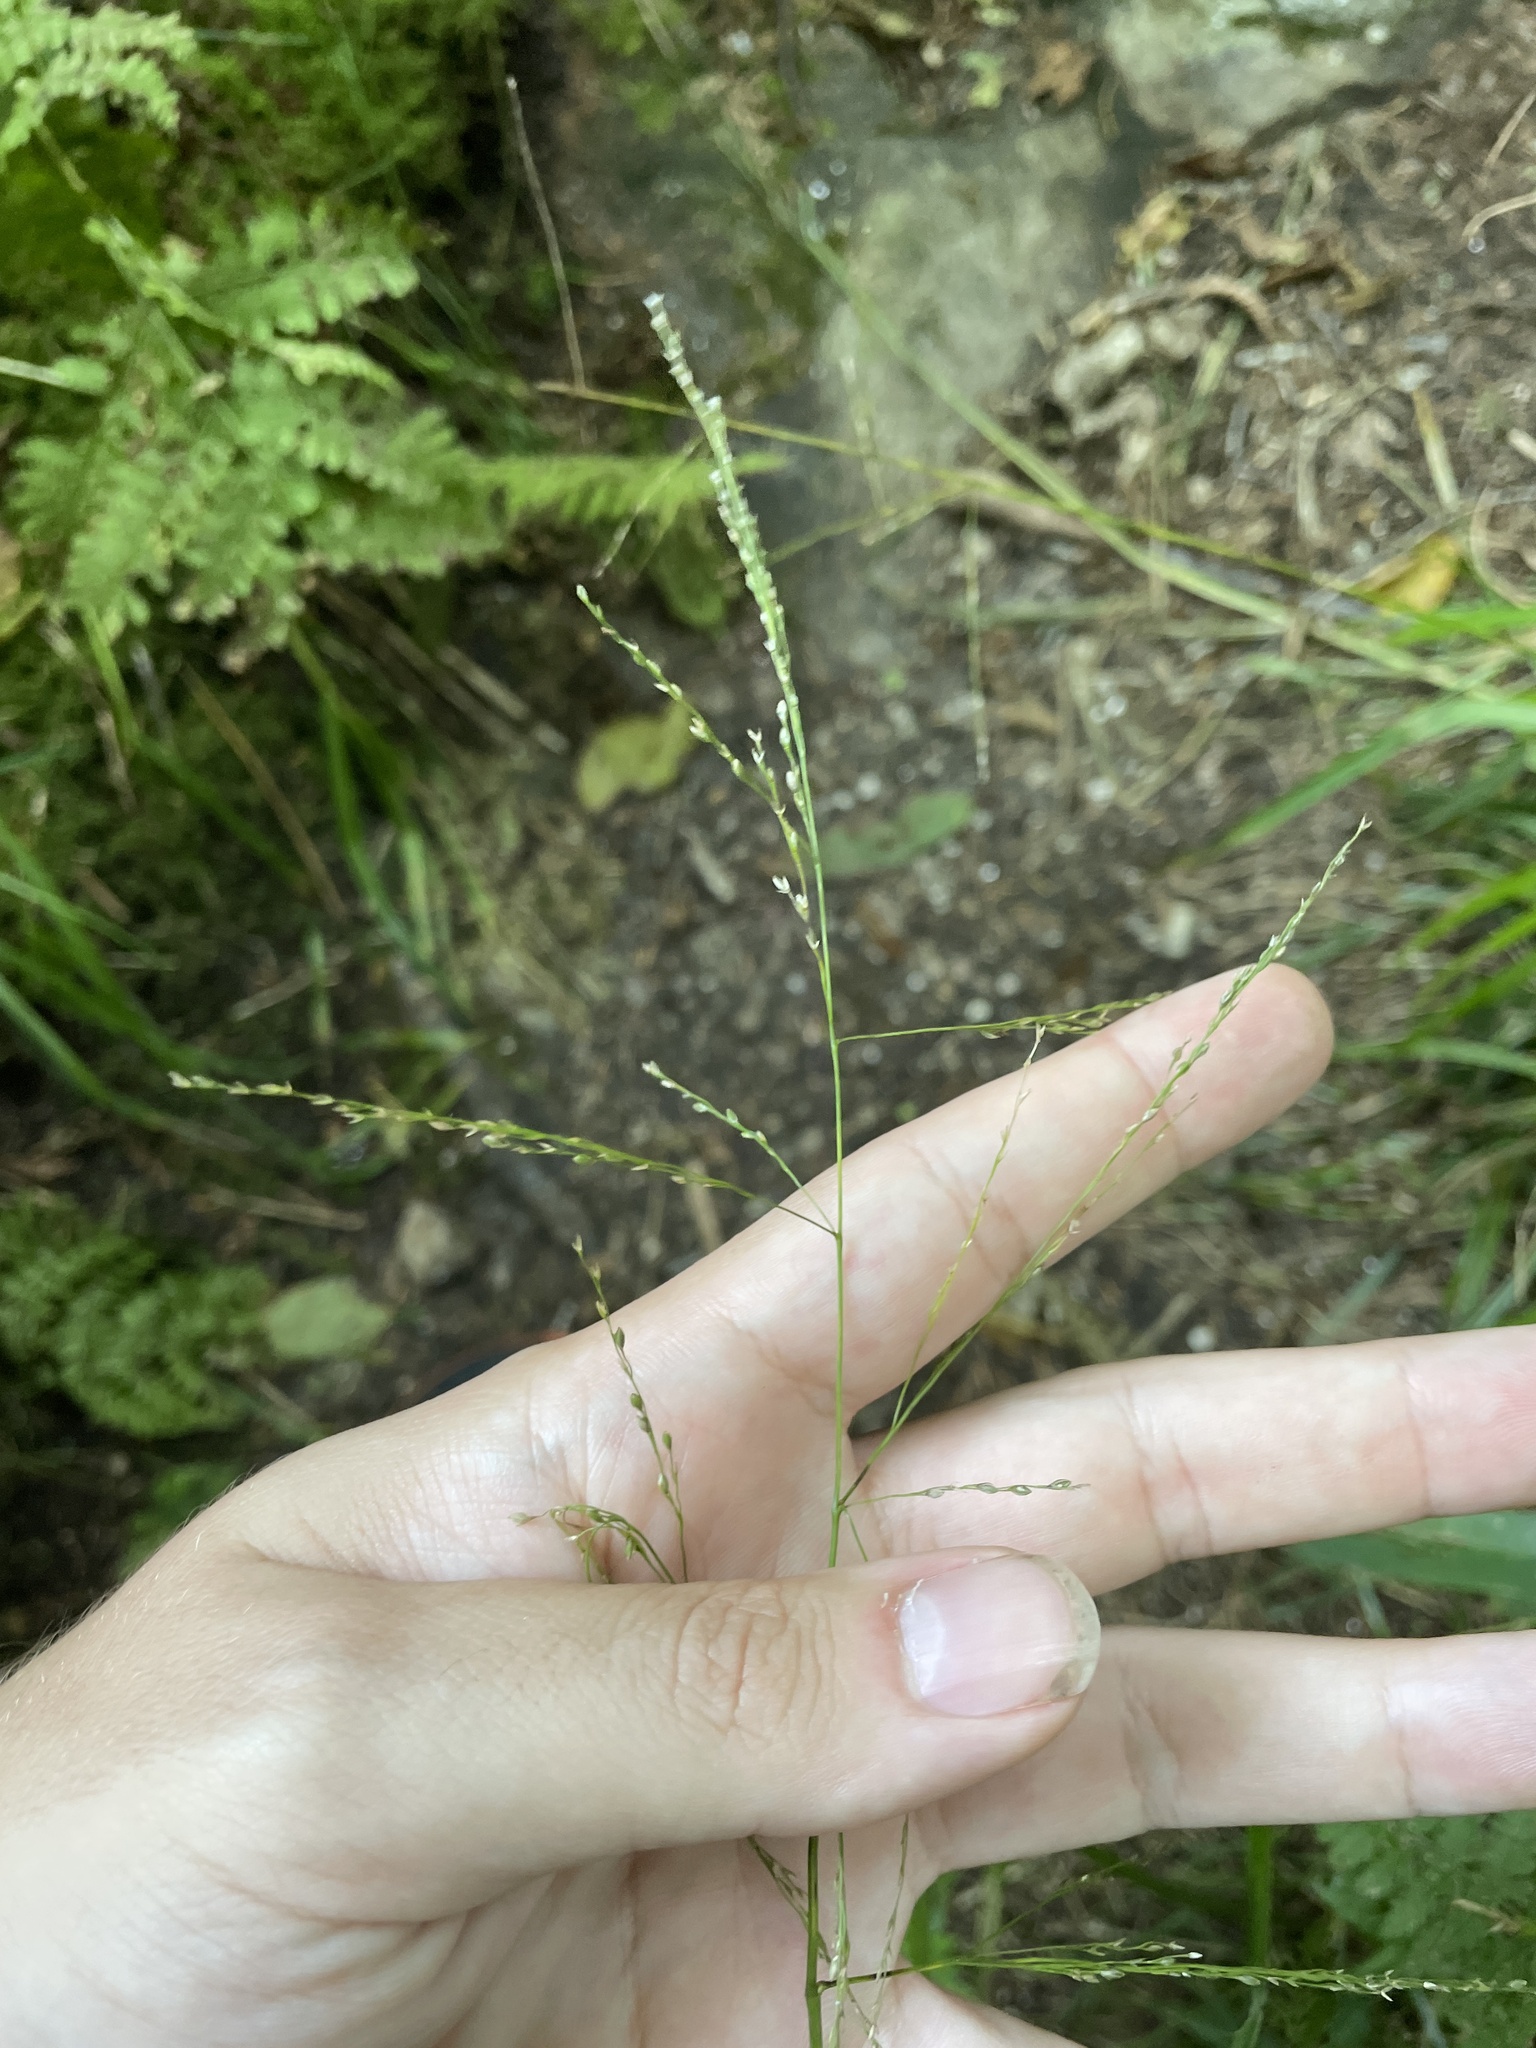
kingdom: Plantae
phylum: Tracheophyta
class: Liliopsida
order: Poales
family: Poaceae
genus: Glyceria
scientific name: Glyceria nubigena
